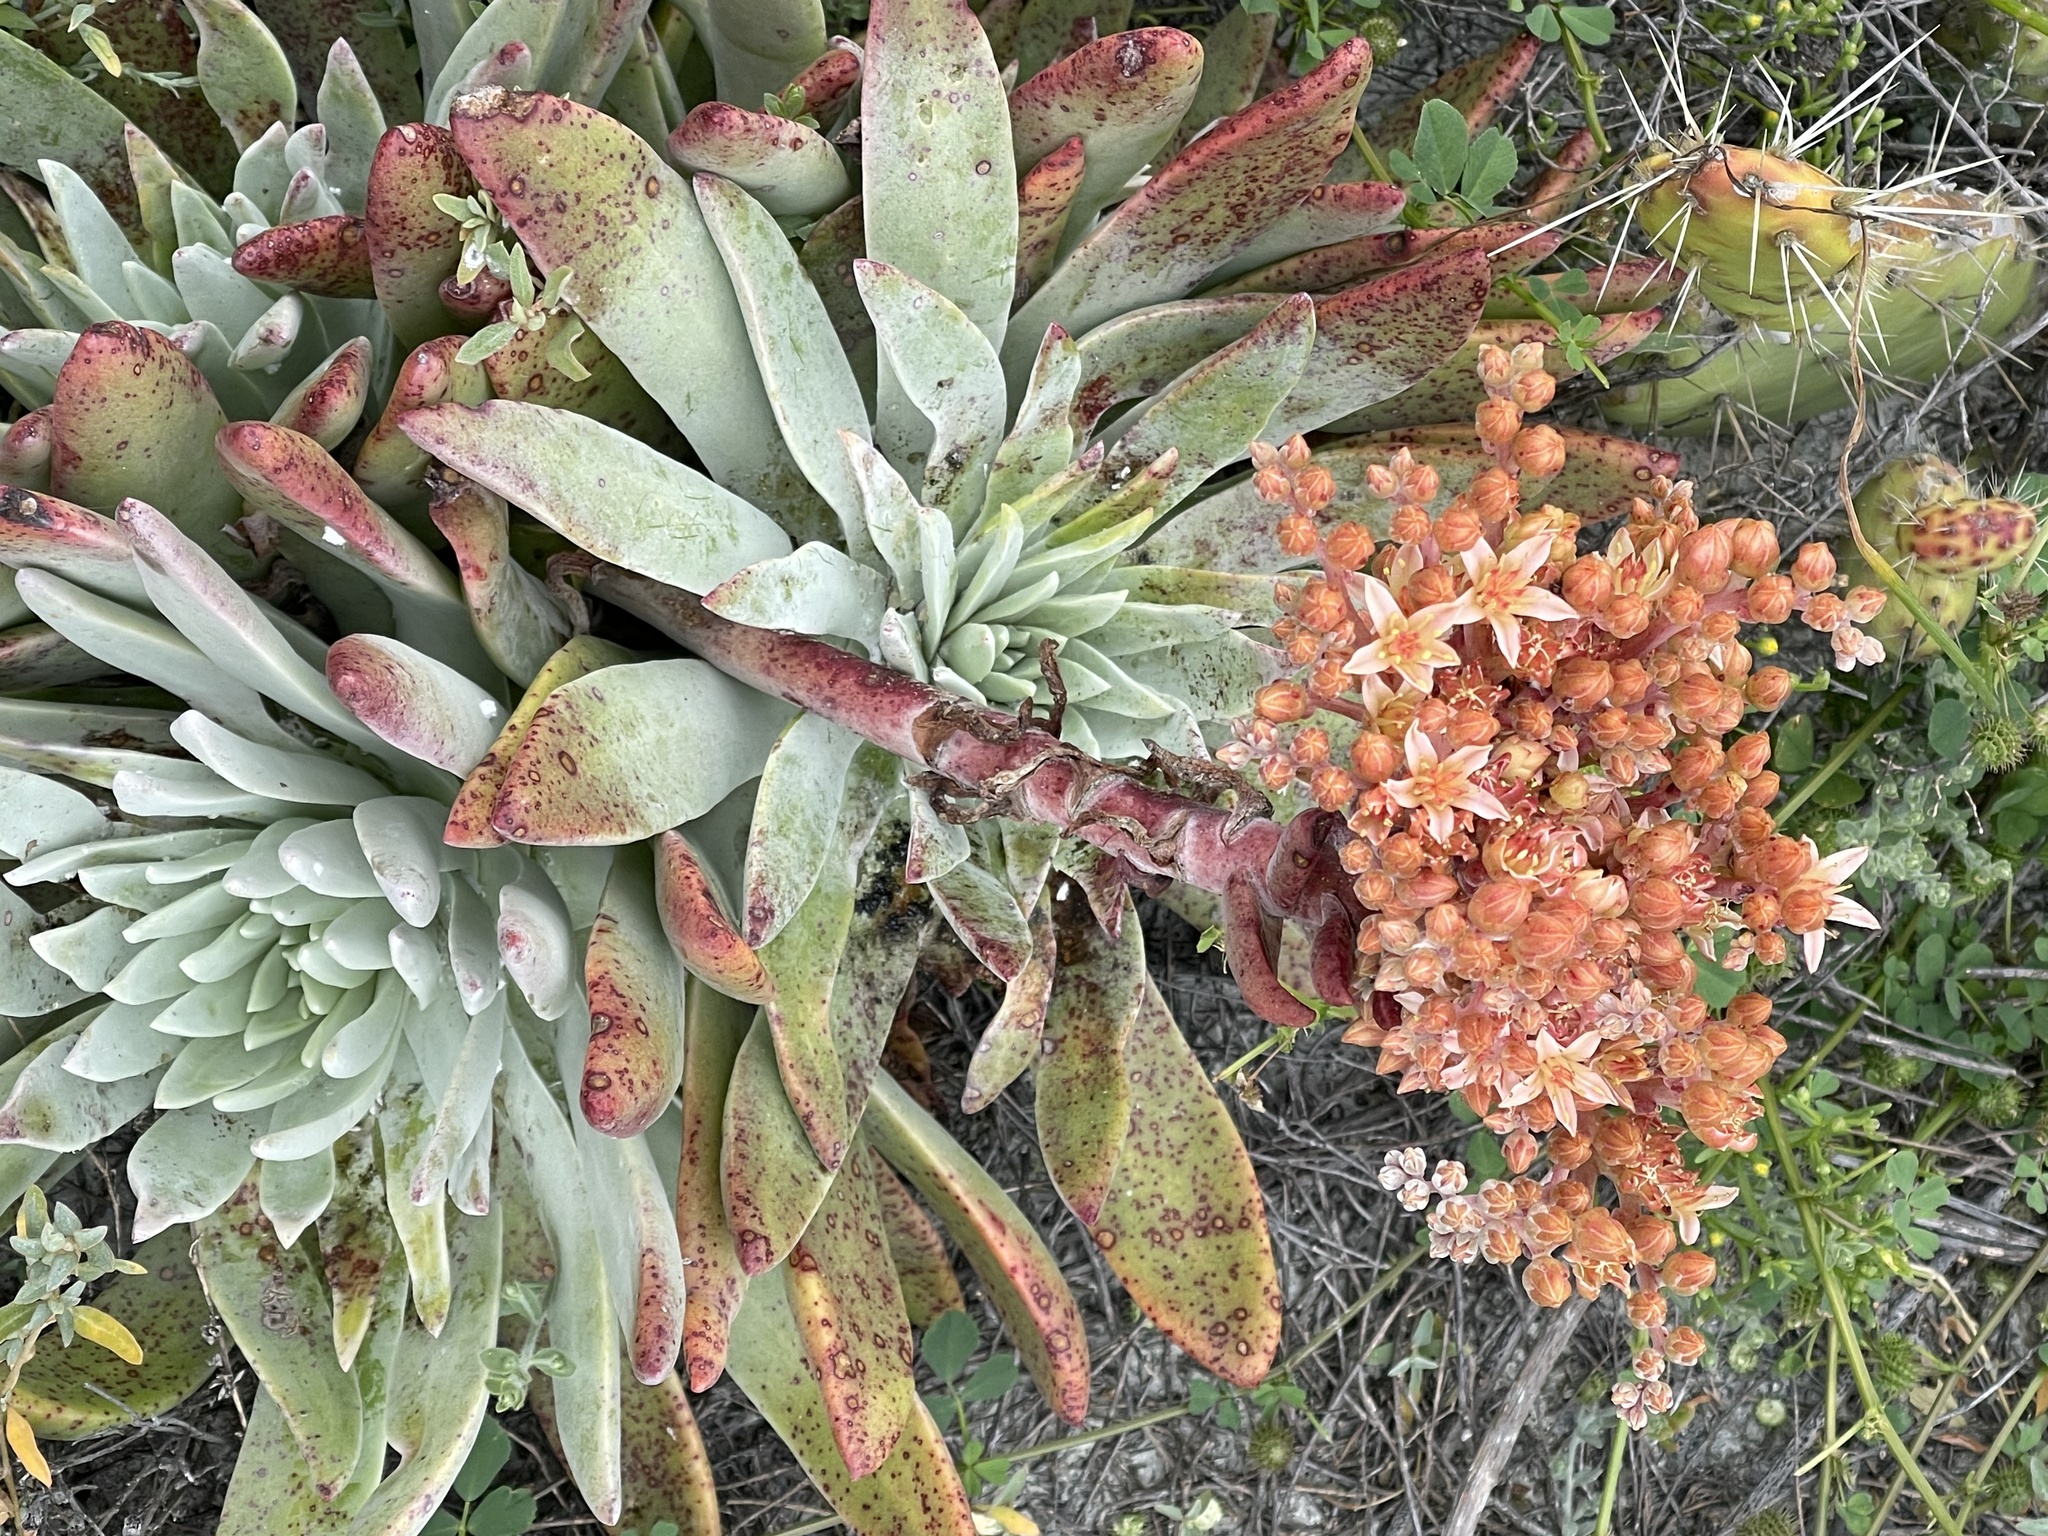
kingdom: Plantae
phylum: Tracheophyta
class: Magnoliopsida
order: Saxifragales
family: Crassulaceae
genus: Dudleya
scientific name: Dudleya virens
